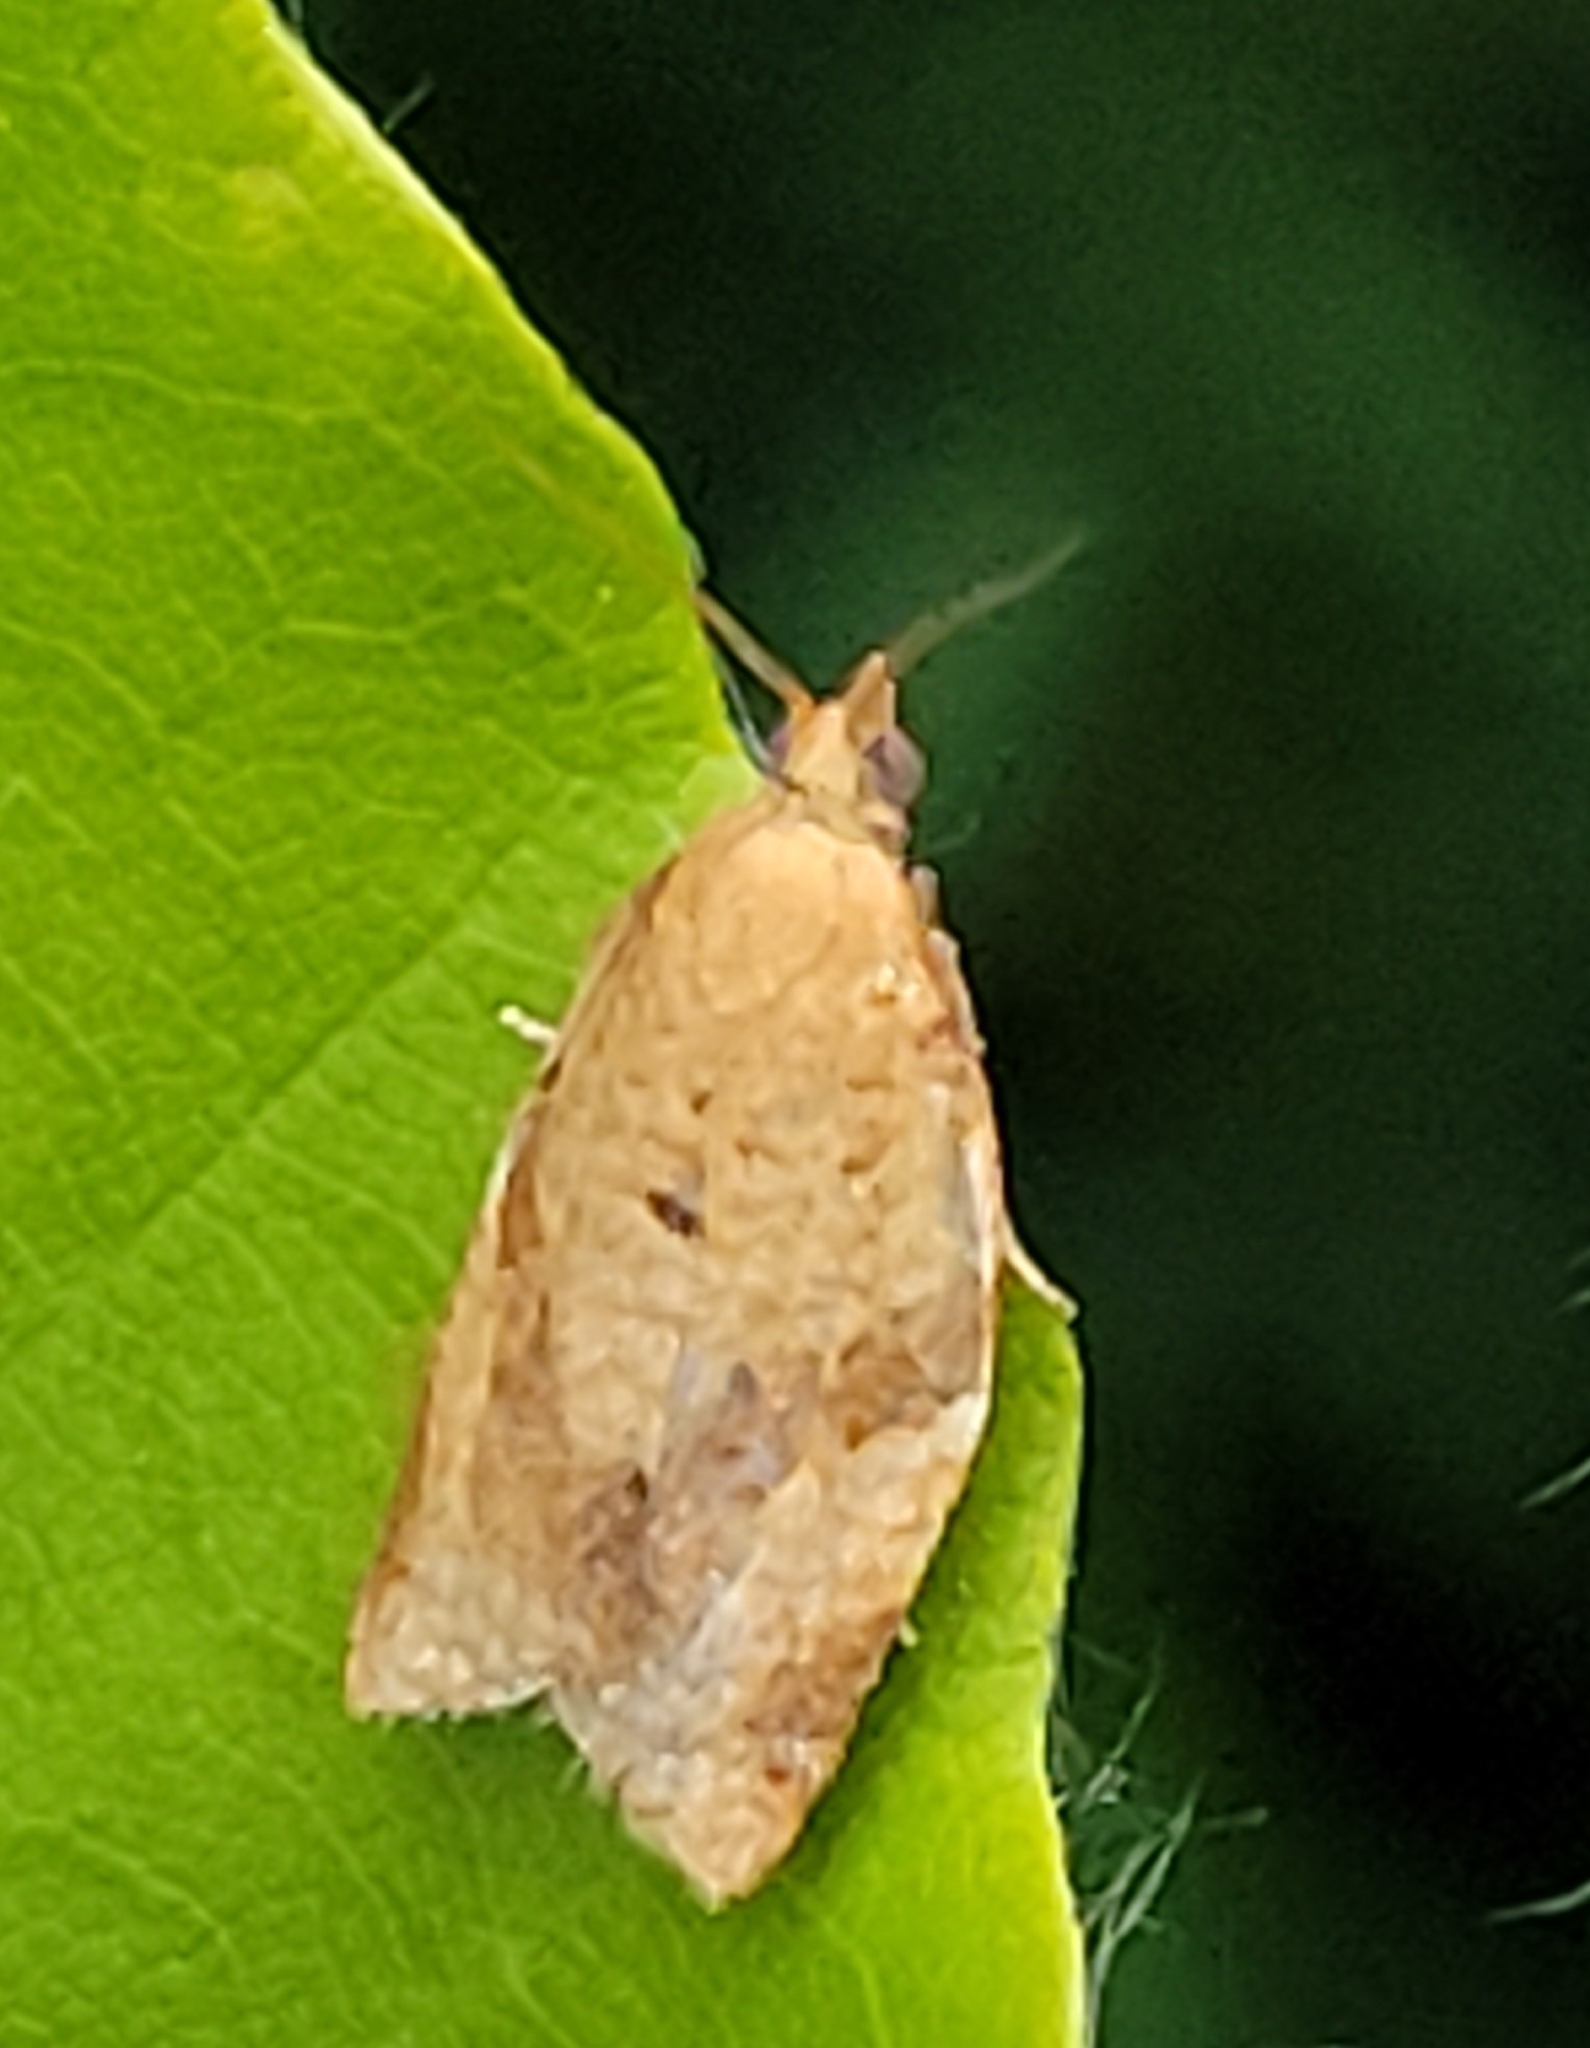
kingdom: Animalia
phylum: Arthropoda
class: Insecta
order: Lepidoptera
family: Tortricidae
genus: Clepsis
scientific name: Clepsis consimilana
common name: Privet tortrix
